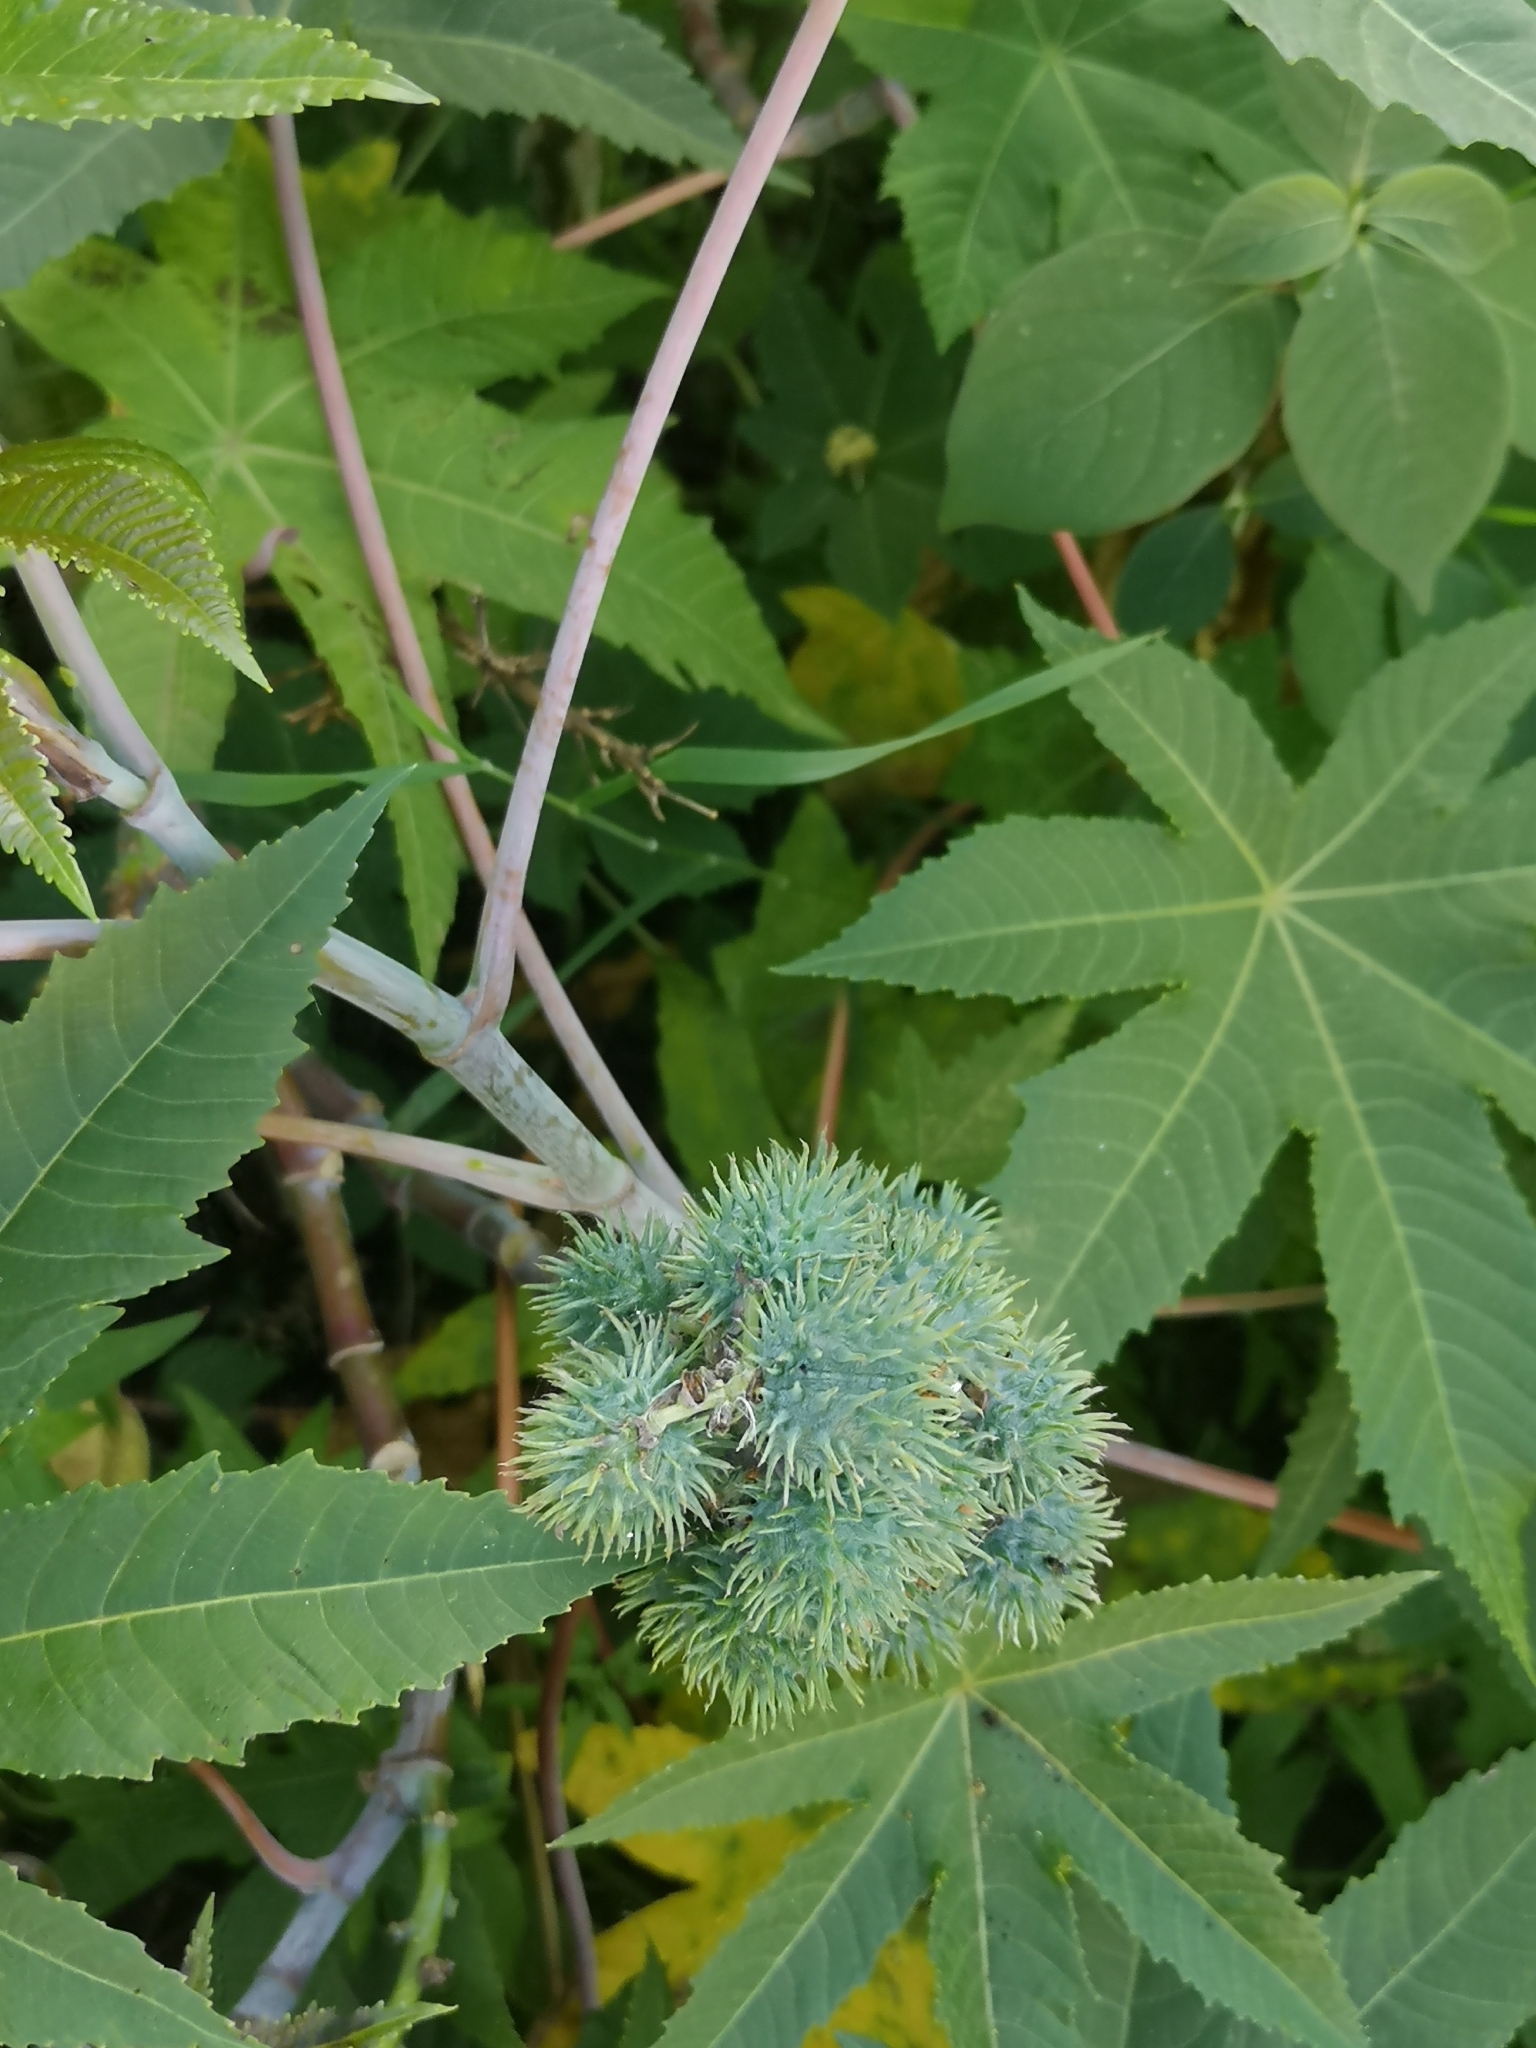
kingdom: Plantae
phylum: Tracheophyta
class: Magnoliopsida
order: Malpighiales
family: Euphorbiaceae
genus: Ricinus
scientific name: Ricinus communis
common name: Castor-oil-plant
